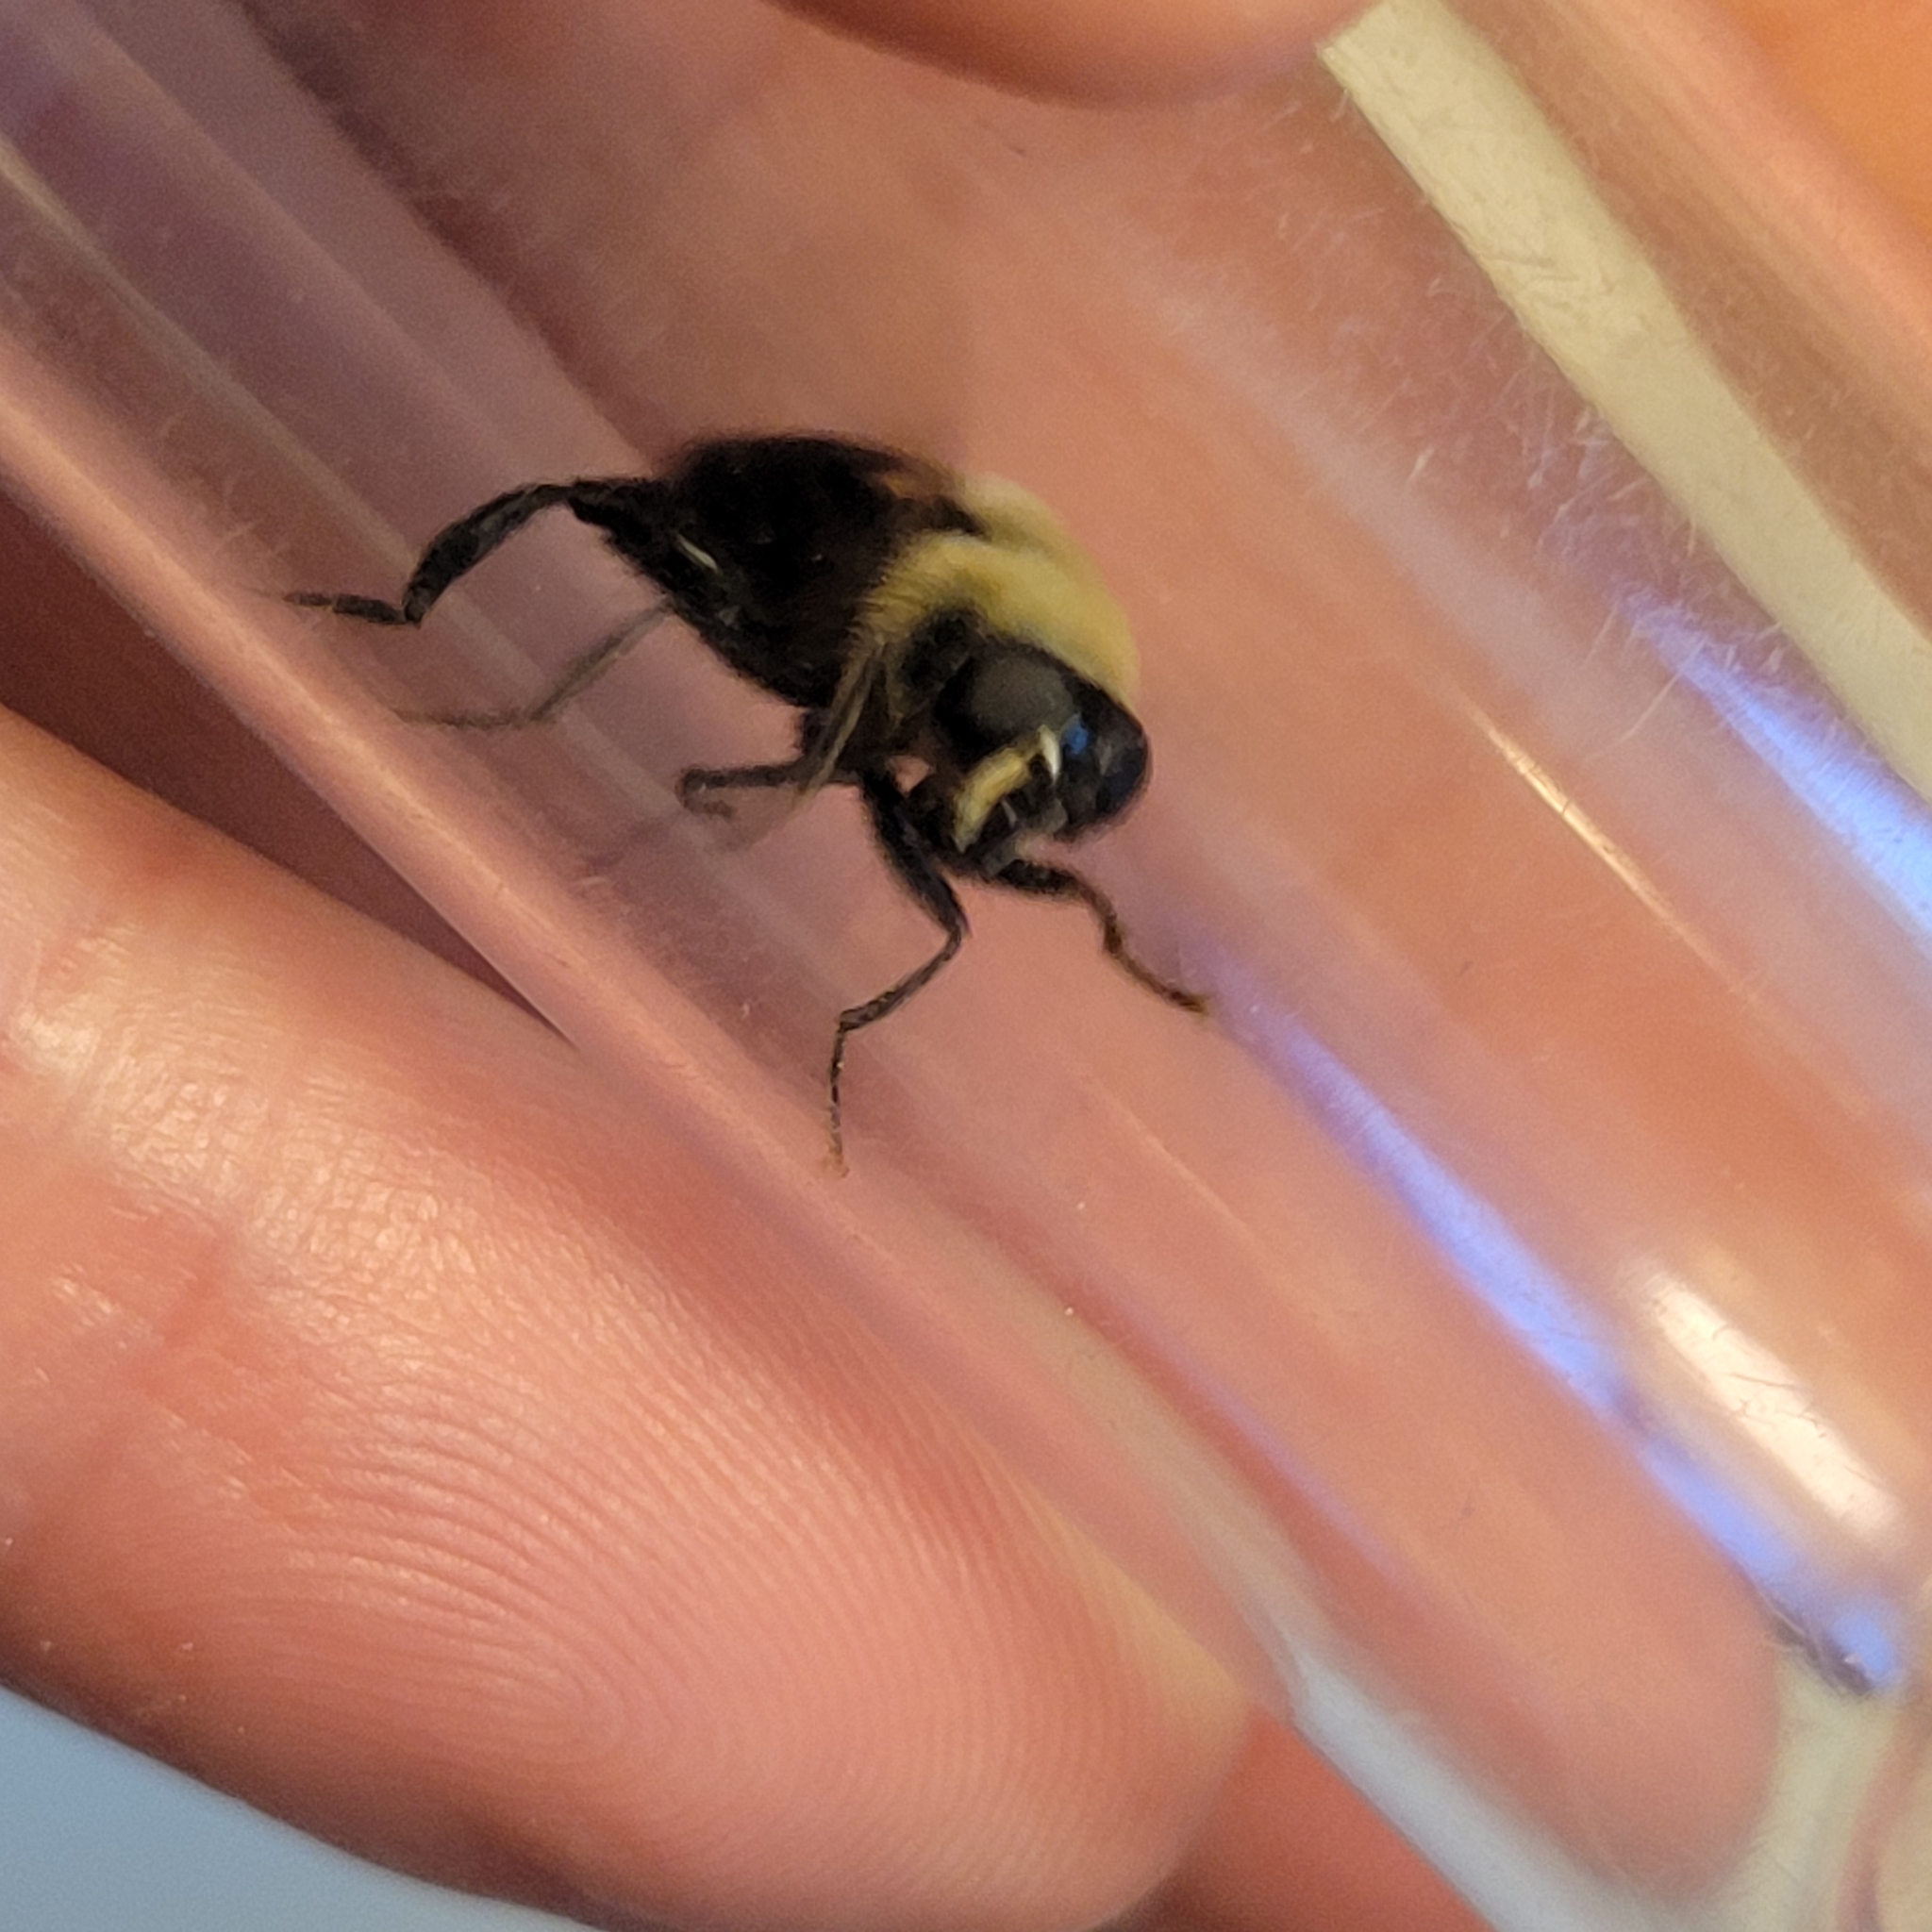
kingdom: Animalia
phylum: Arthropoda
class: Insecta
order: Diptera
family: Syrphidae
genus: Imatisma
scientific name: Imatisma bautias
